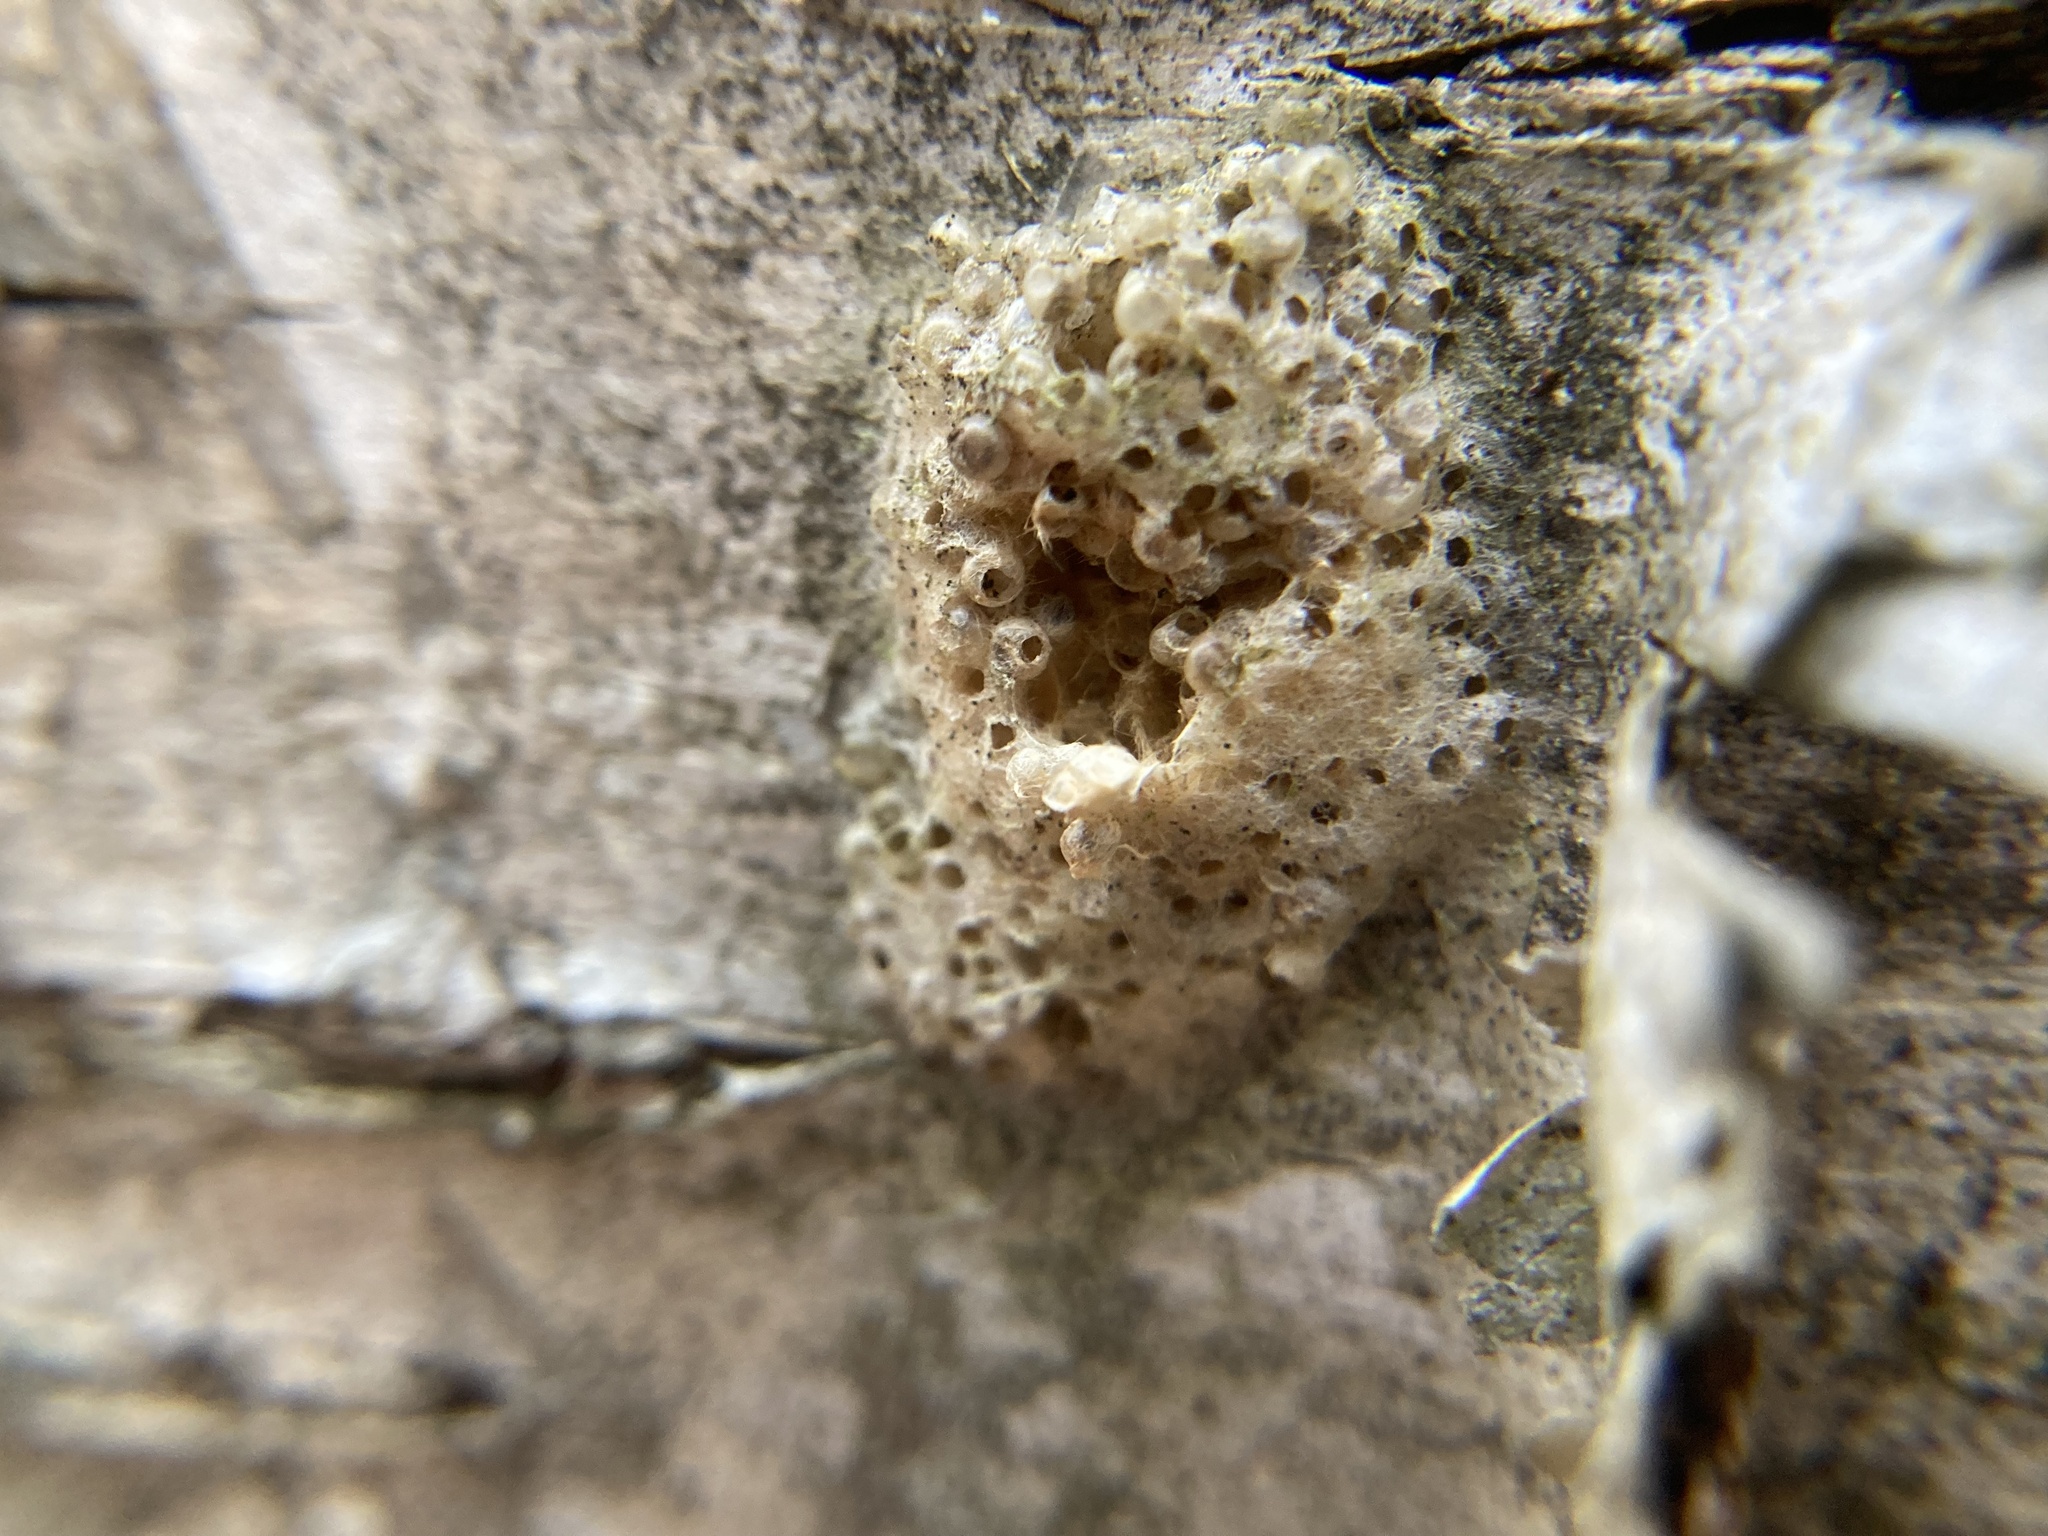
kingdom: Animalia
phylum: Arthropoda
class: Insecta
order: Lepidoptera
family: Erebidae
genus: Lymantria
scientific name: Lymantria dispar
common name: Gypsy moth
